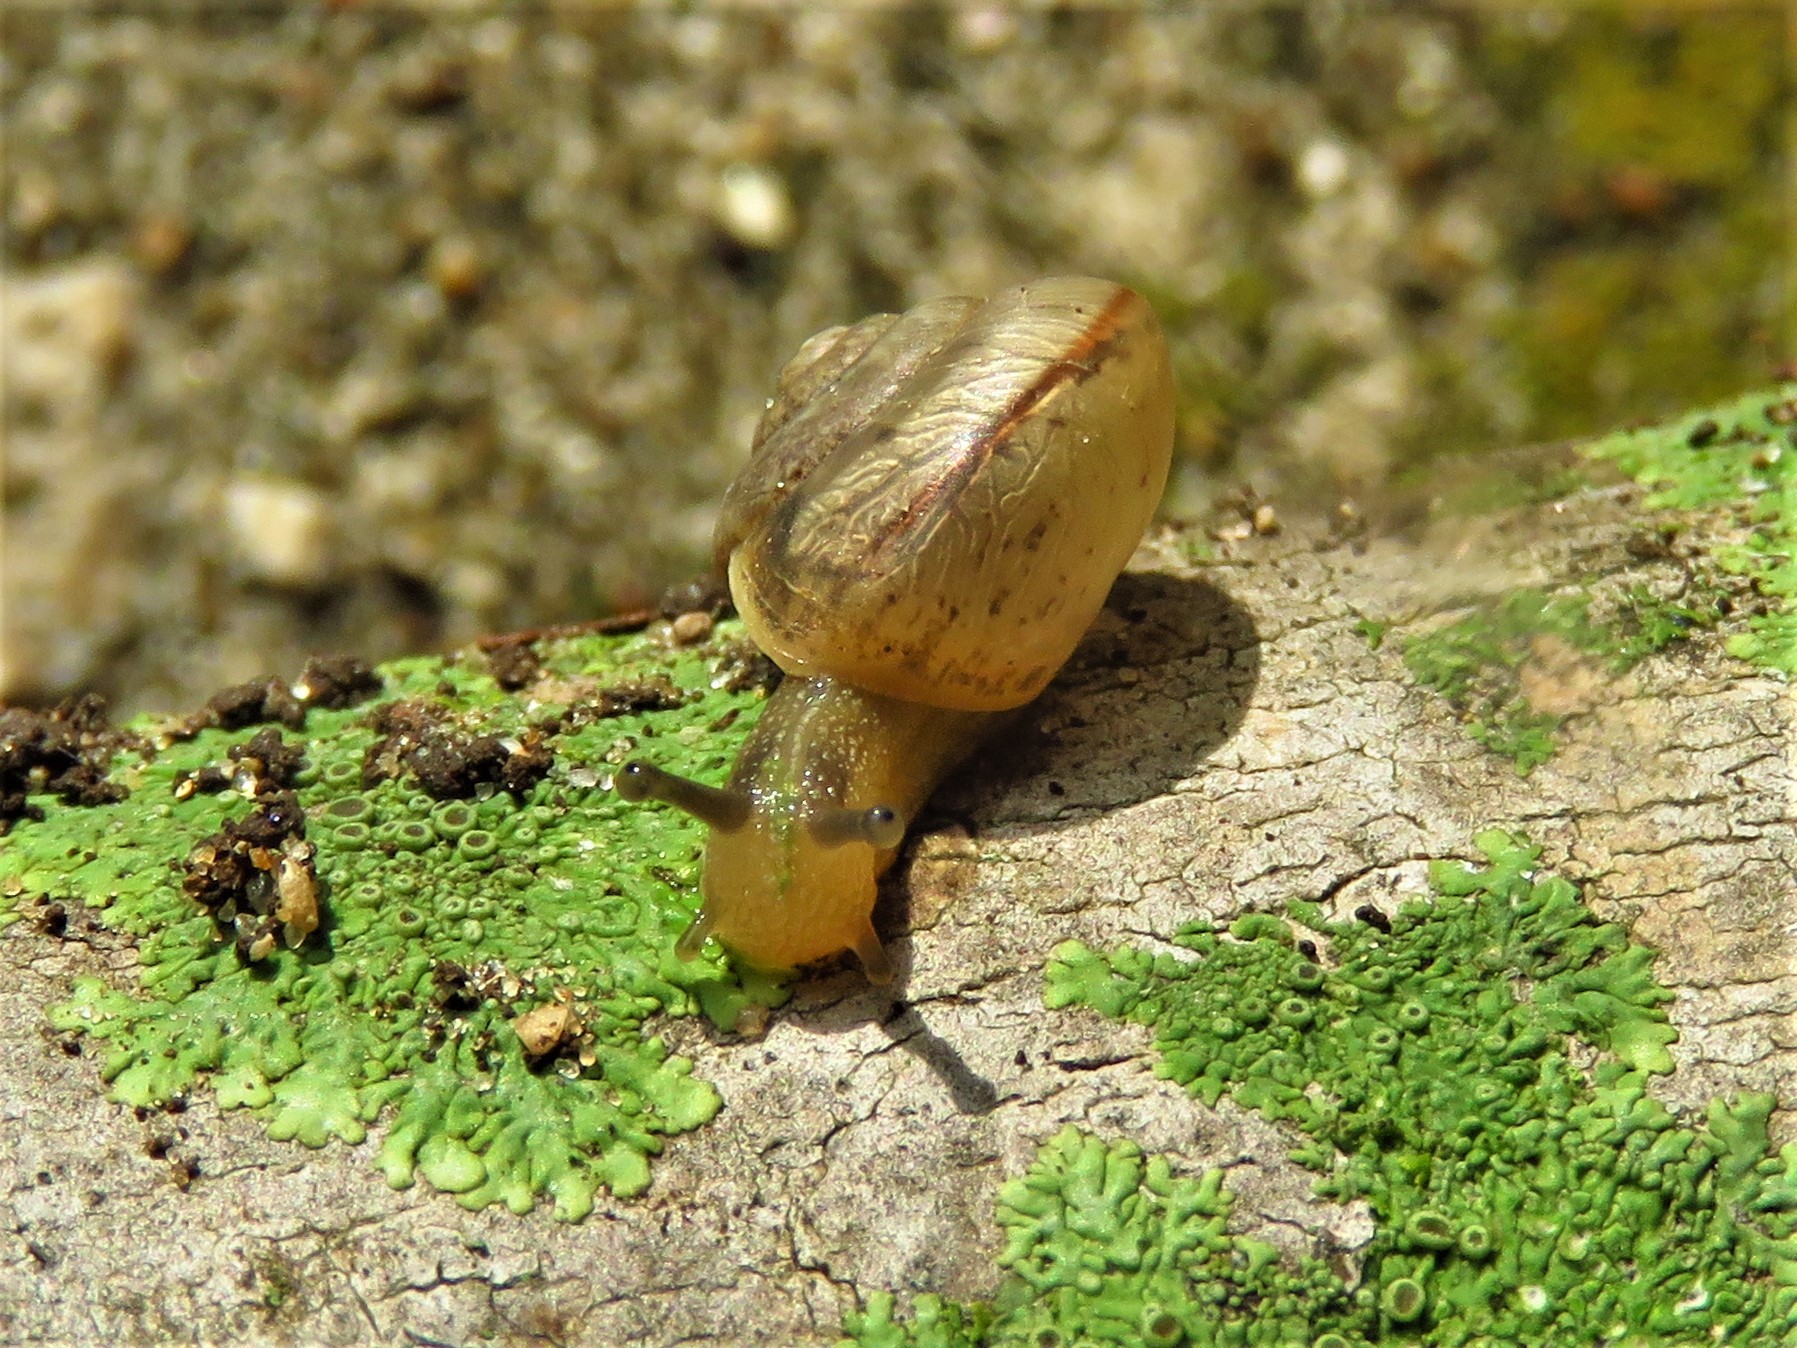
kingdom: Animalia
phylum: Mollusca
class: Gastropoda
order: Stylommatophora
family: Camaenidae
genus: Bradybaena
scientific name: Bradybaena similaris
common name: Asian trampsnail
